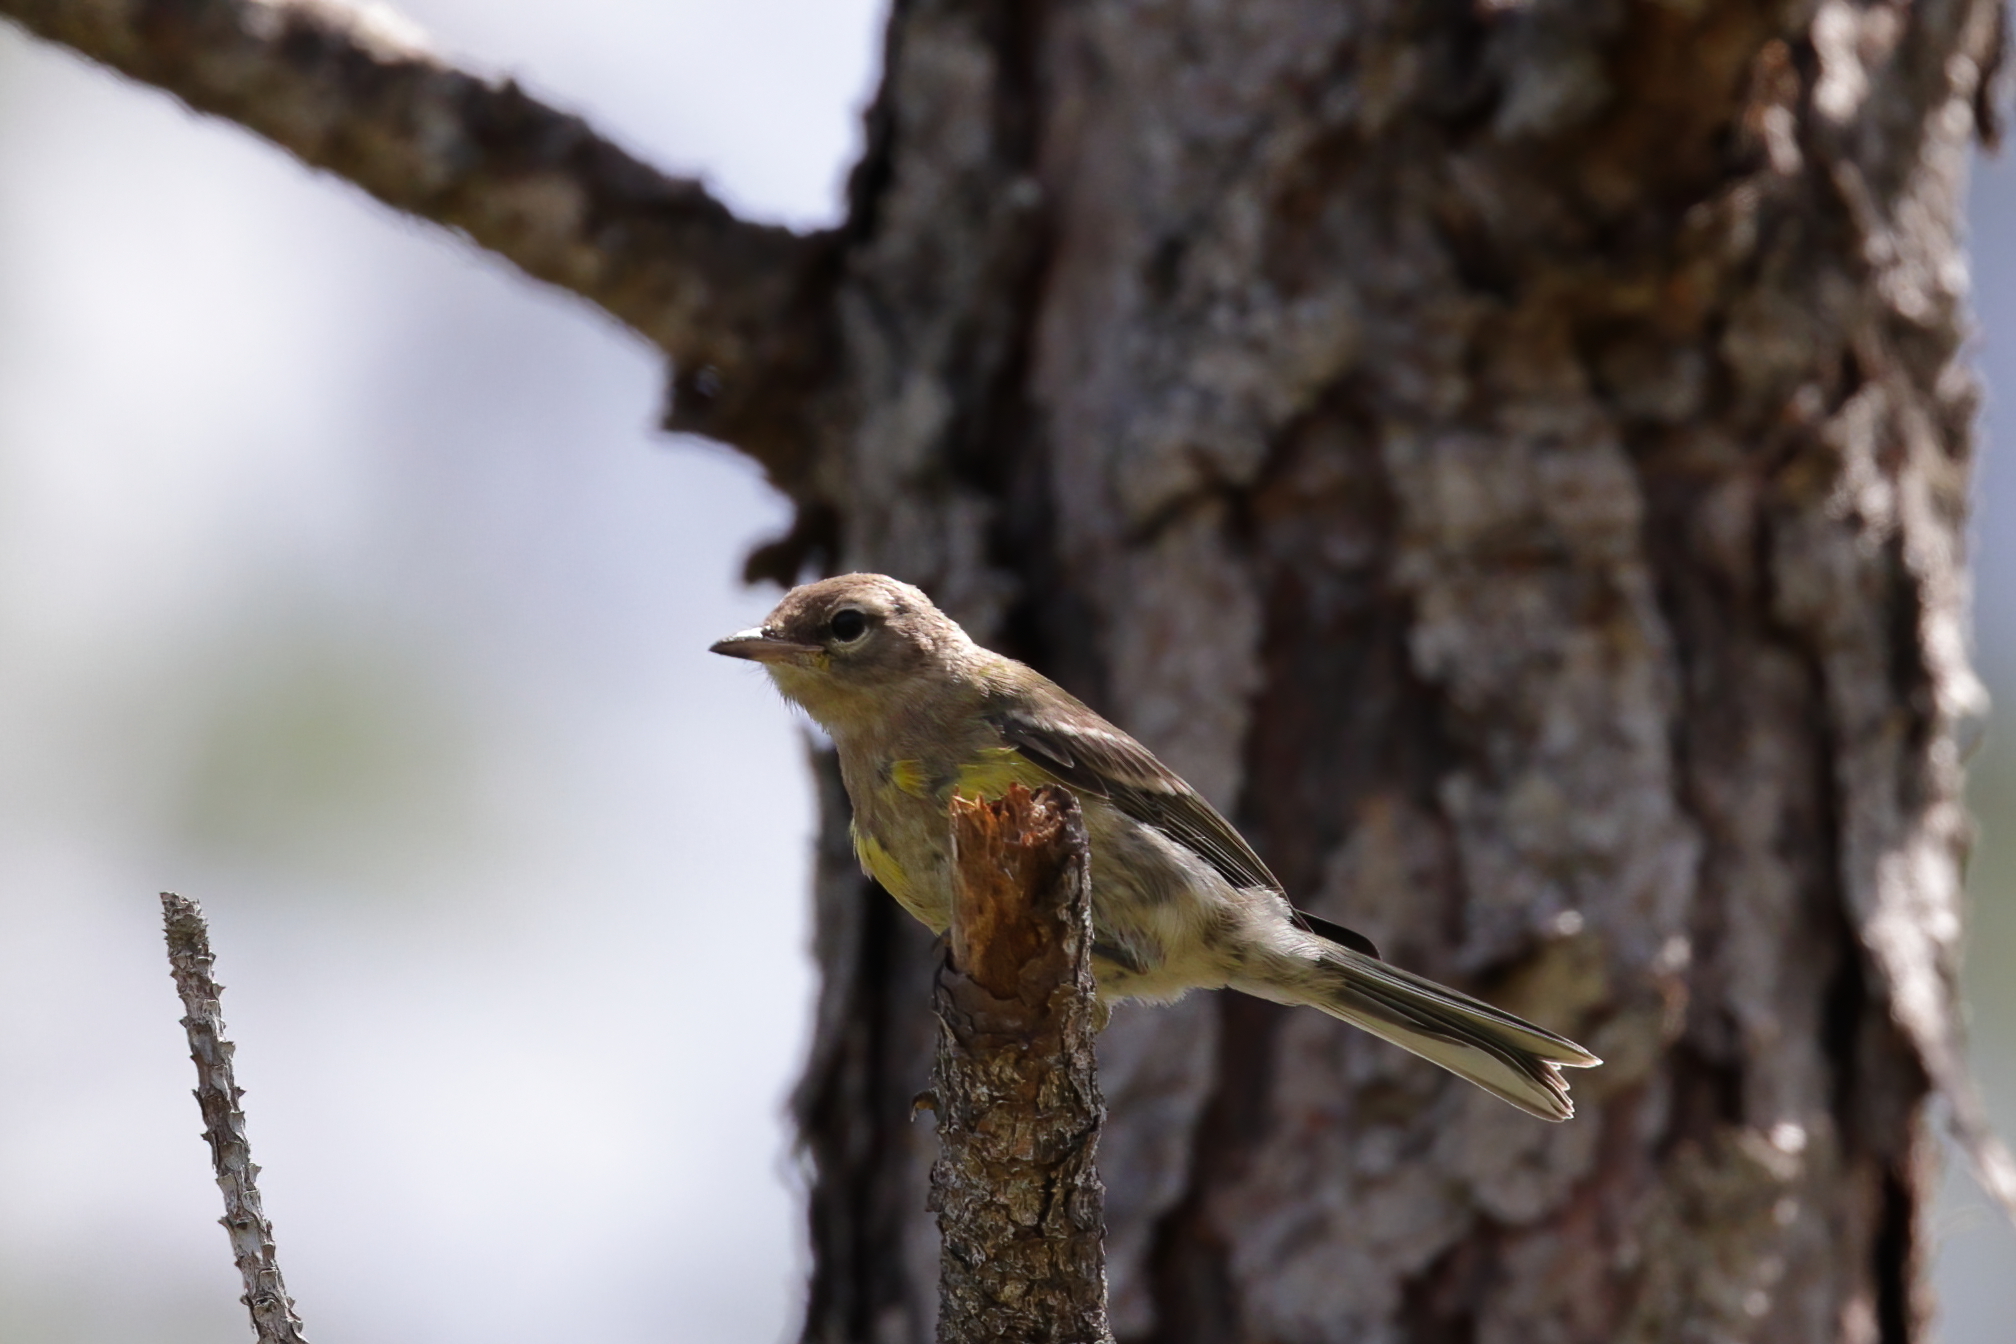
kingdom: Animalia
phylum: Chordata
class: Aves
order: Passeriformes
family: Parulidae
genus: Setophaga
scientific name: Setophaga pinus
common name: Pine warbler
